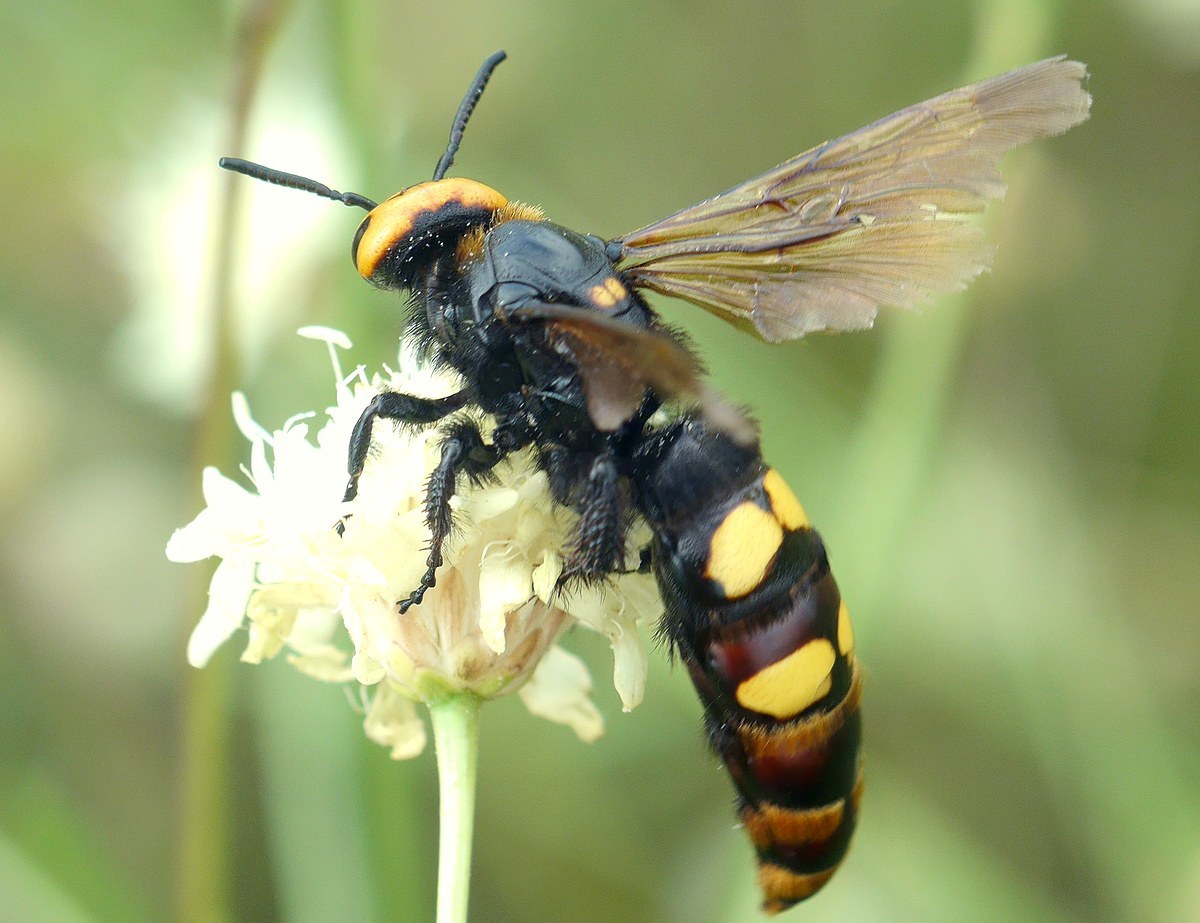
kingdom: Animalia
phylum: Arthropoda
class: Insecta
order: Hymenoptera
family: Scoliidae
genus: Megascolia
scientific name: Megascolia maculata
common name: Mammoth wasp
